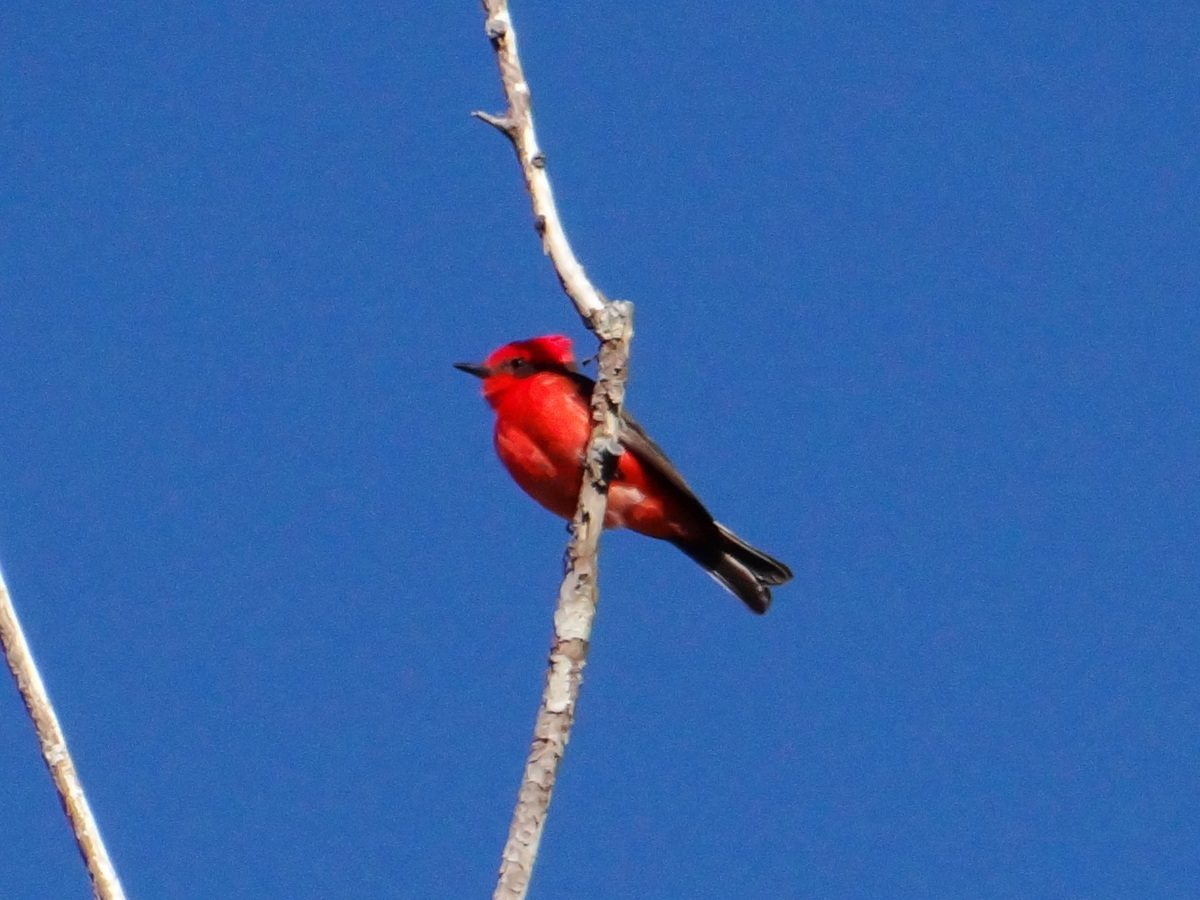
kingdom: Animalia
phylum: Chordata
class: Aves
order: Passeriformes
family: Tyrannidae
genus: Pyrocephalus
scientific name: Pyrocephalus rubinus
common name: Vermilion flycatcher
